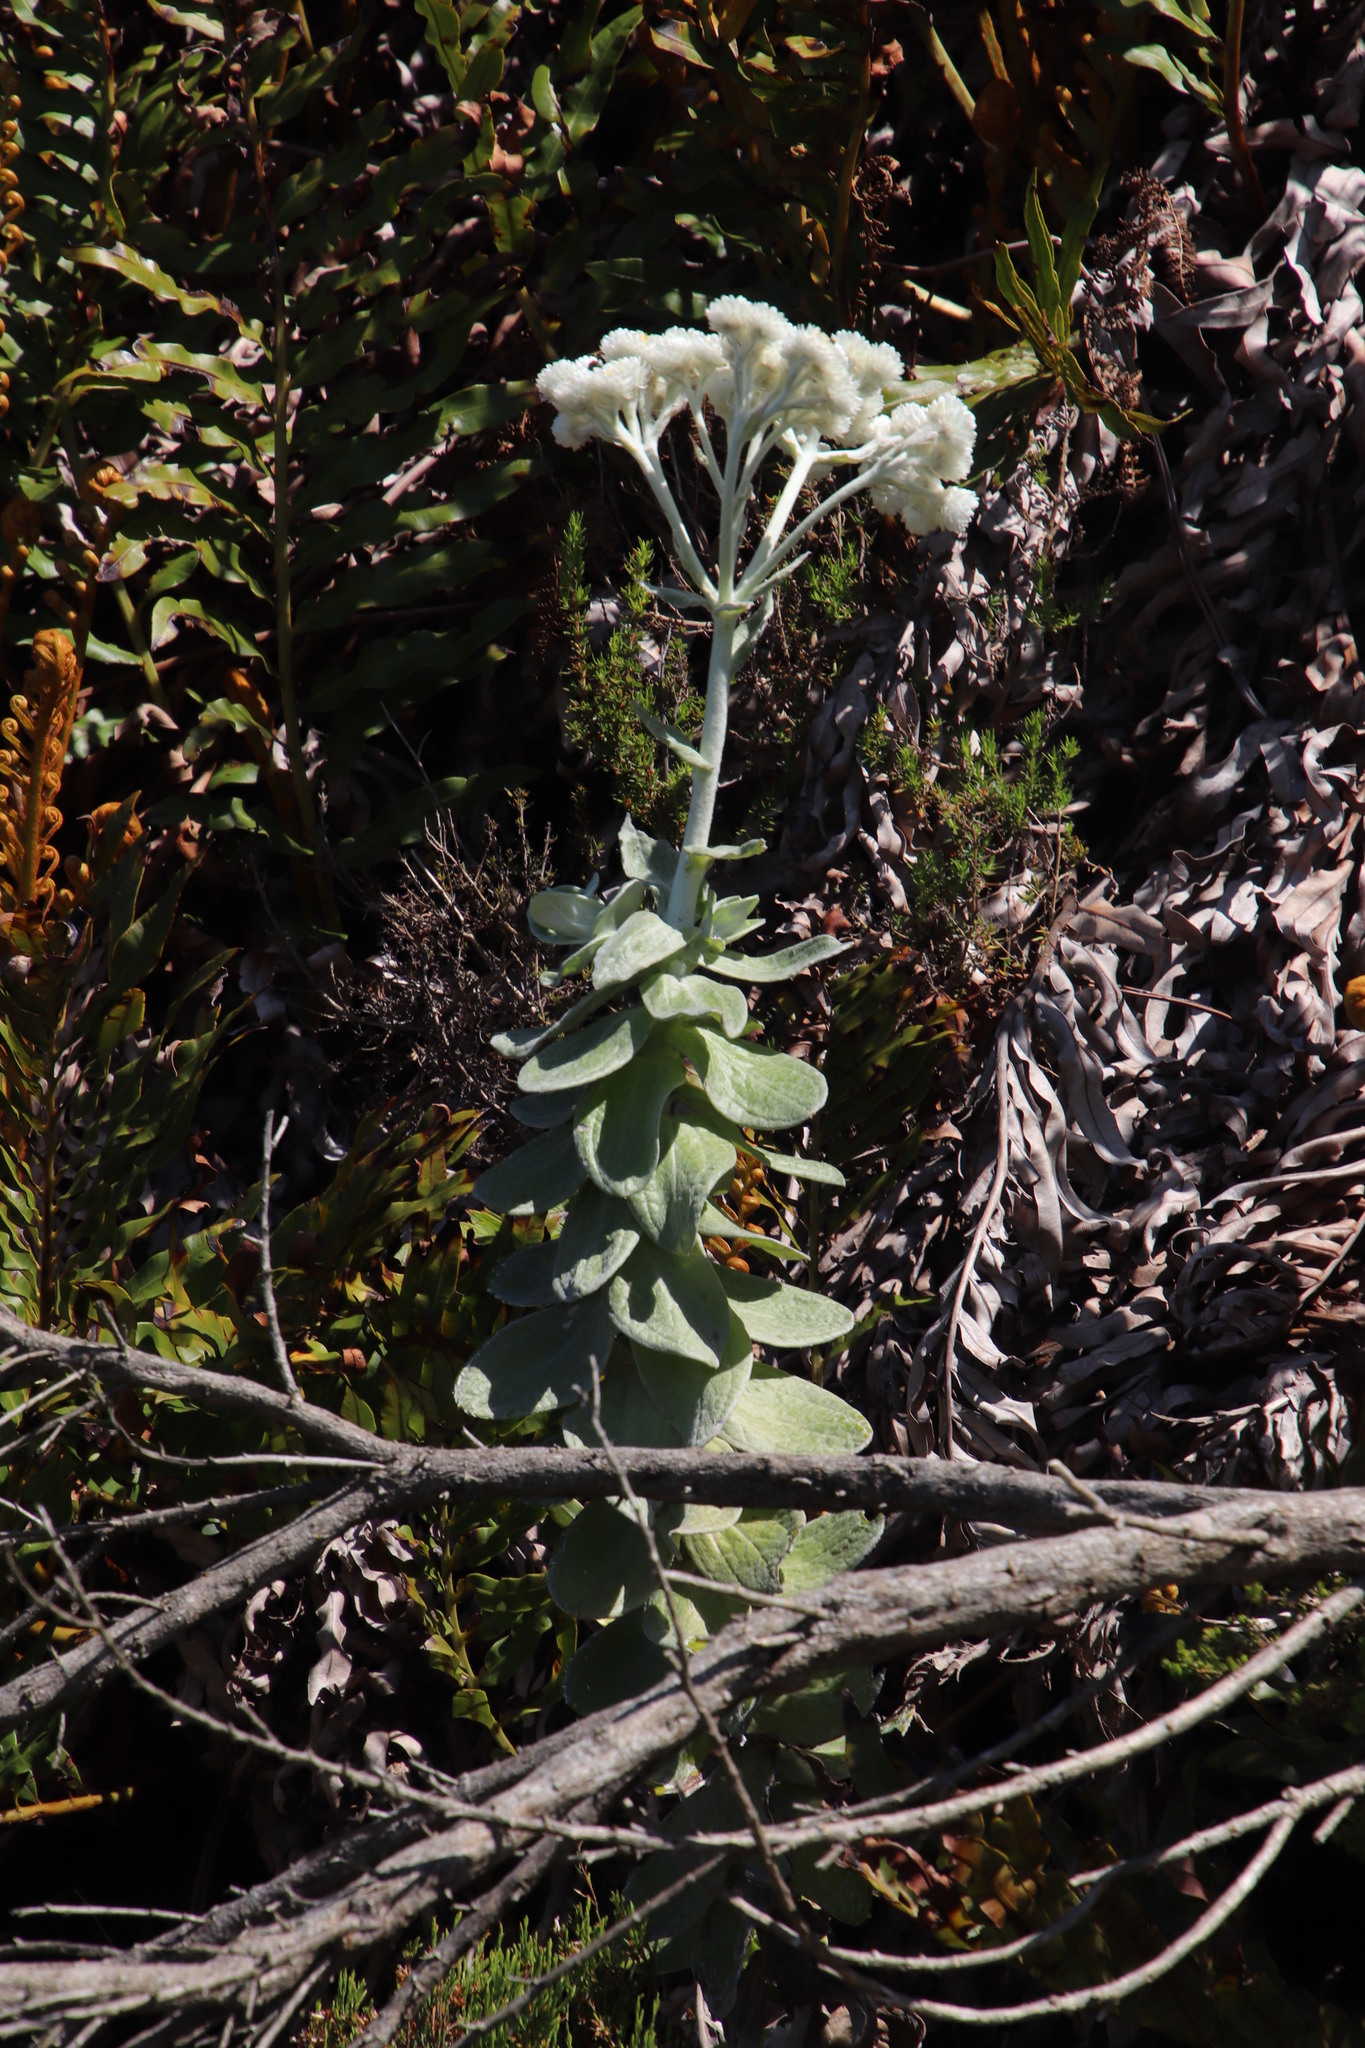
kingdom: Plantae
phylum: Tracheophyta
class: Magnoliopsida
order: Asterales
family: Asteraceae
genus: Helichrysum
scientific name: Helichrysum fruticans
